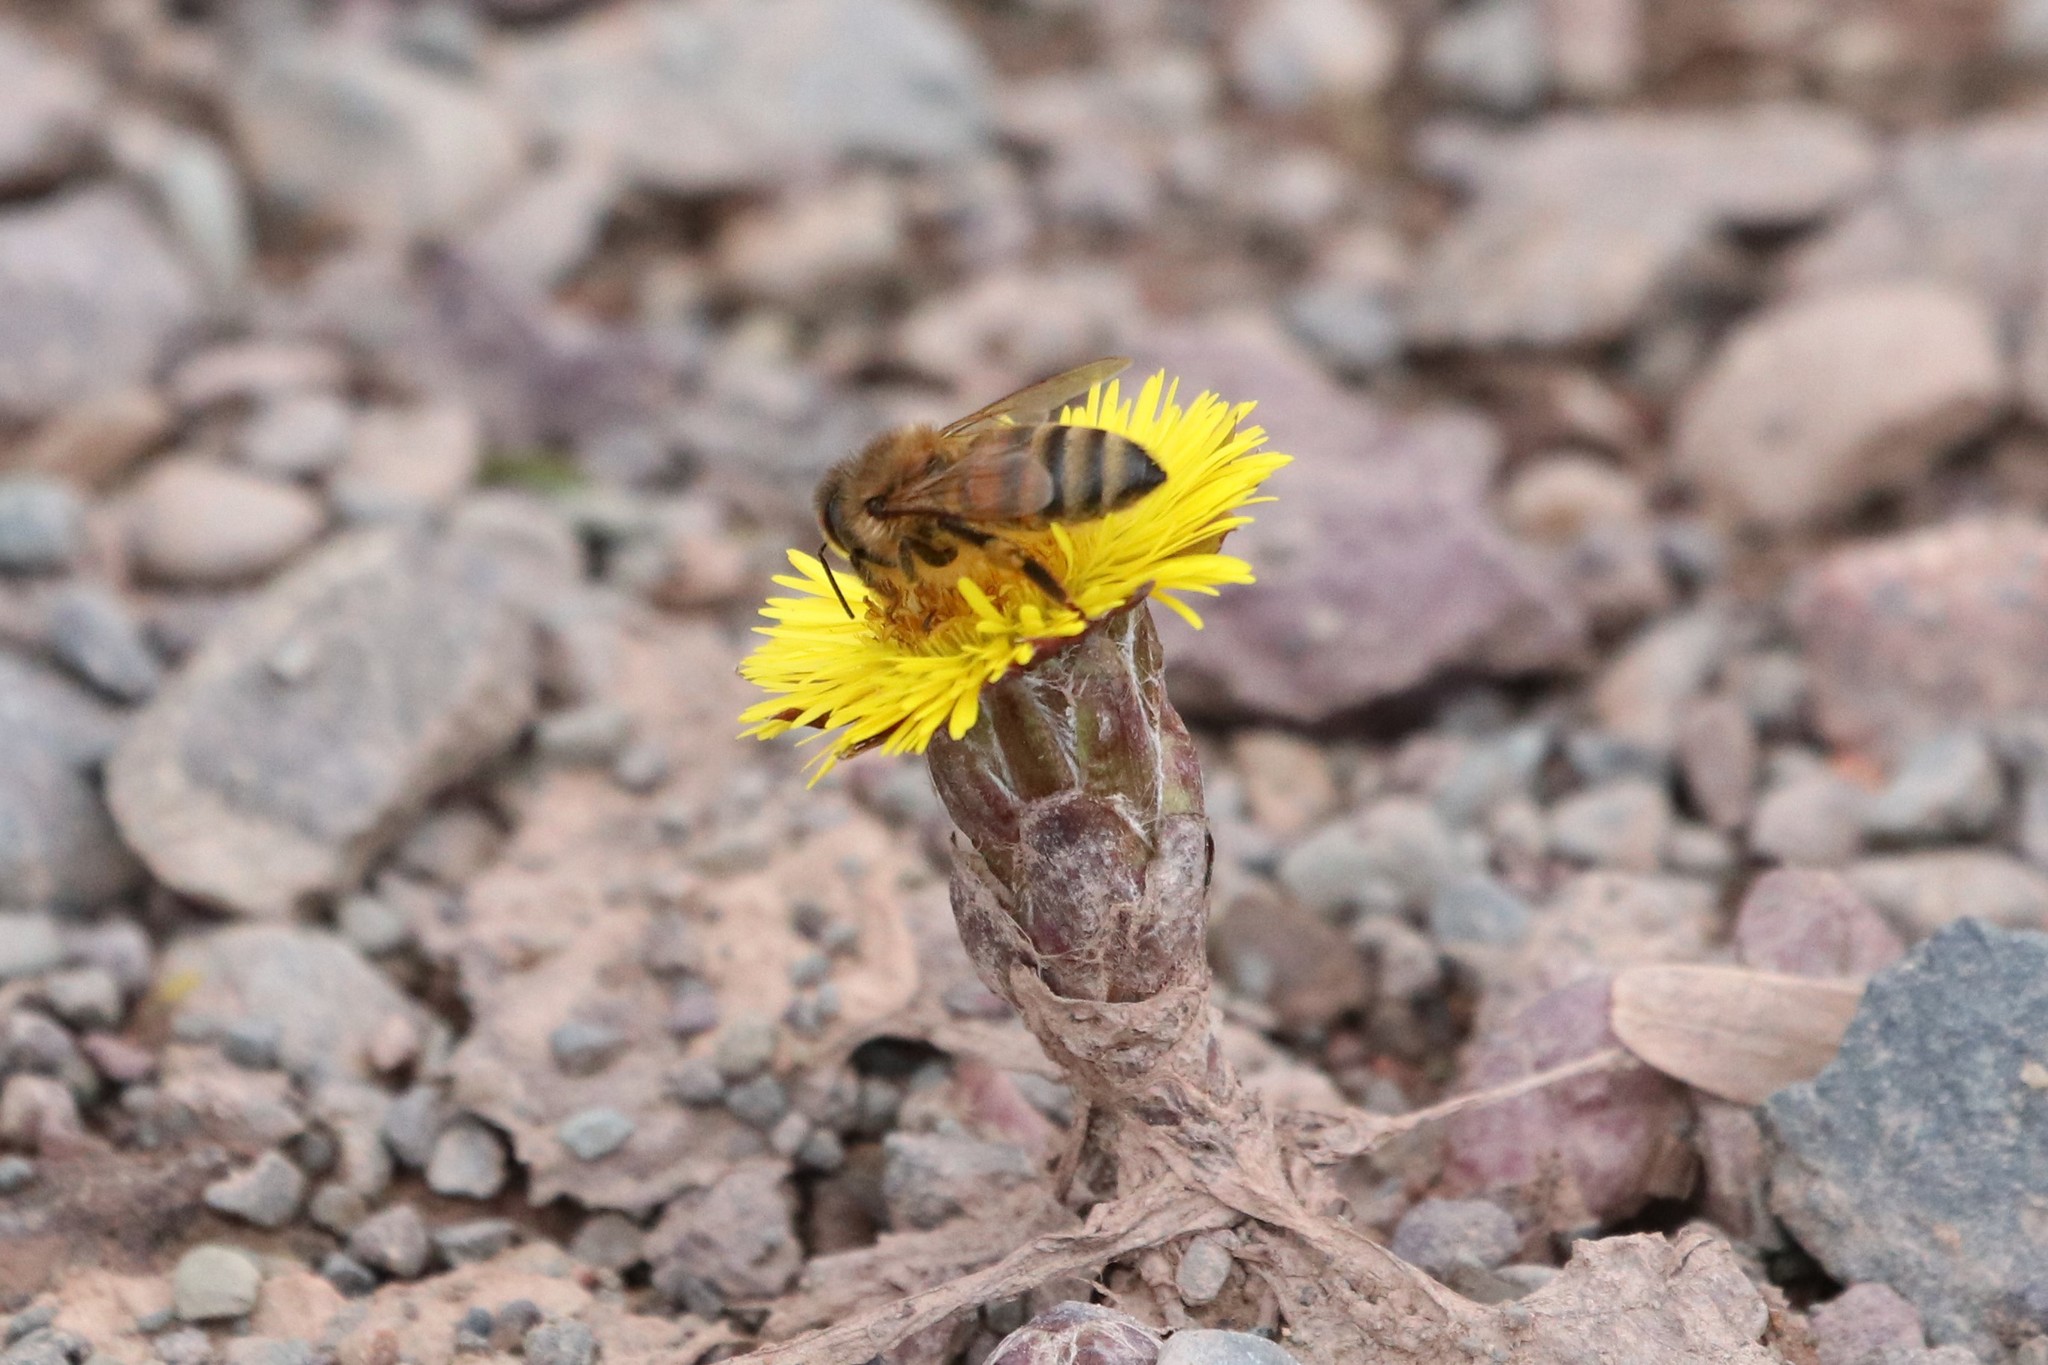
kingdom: Animalia
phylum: Arthropoda
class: Insecta
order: Hymenoptera
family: Apidae
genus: Apis
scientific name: Apis mellifera
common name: Honey bee
